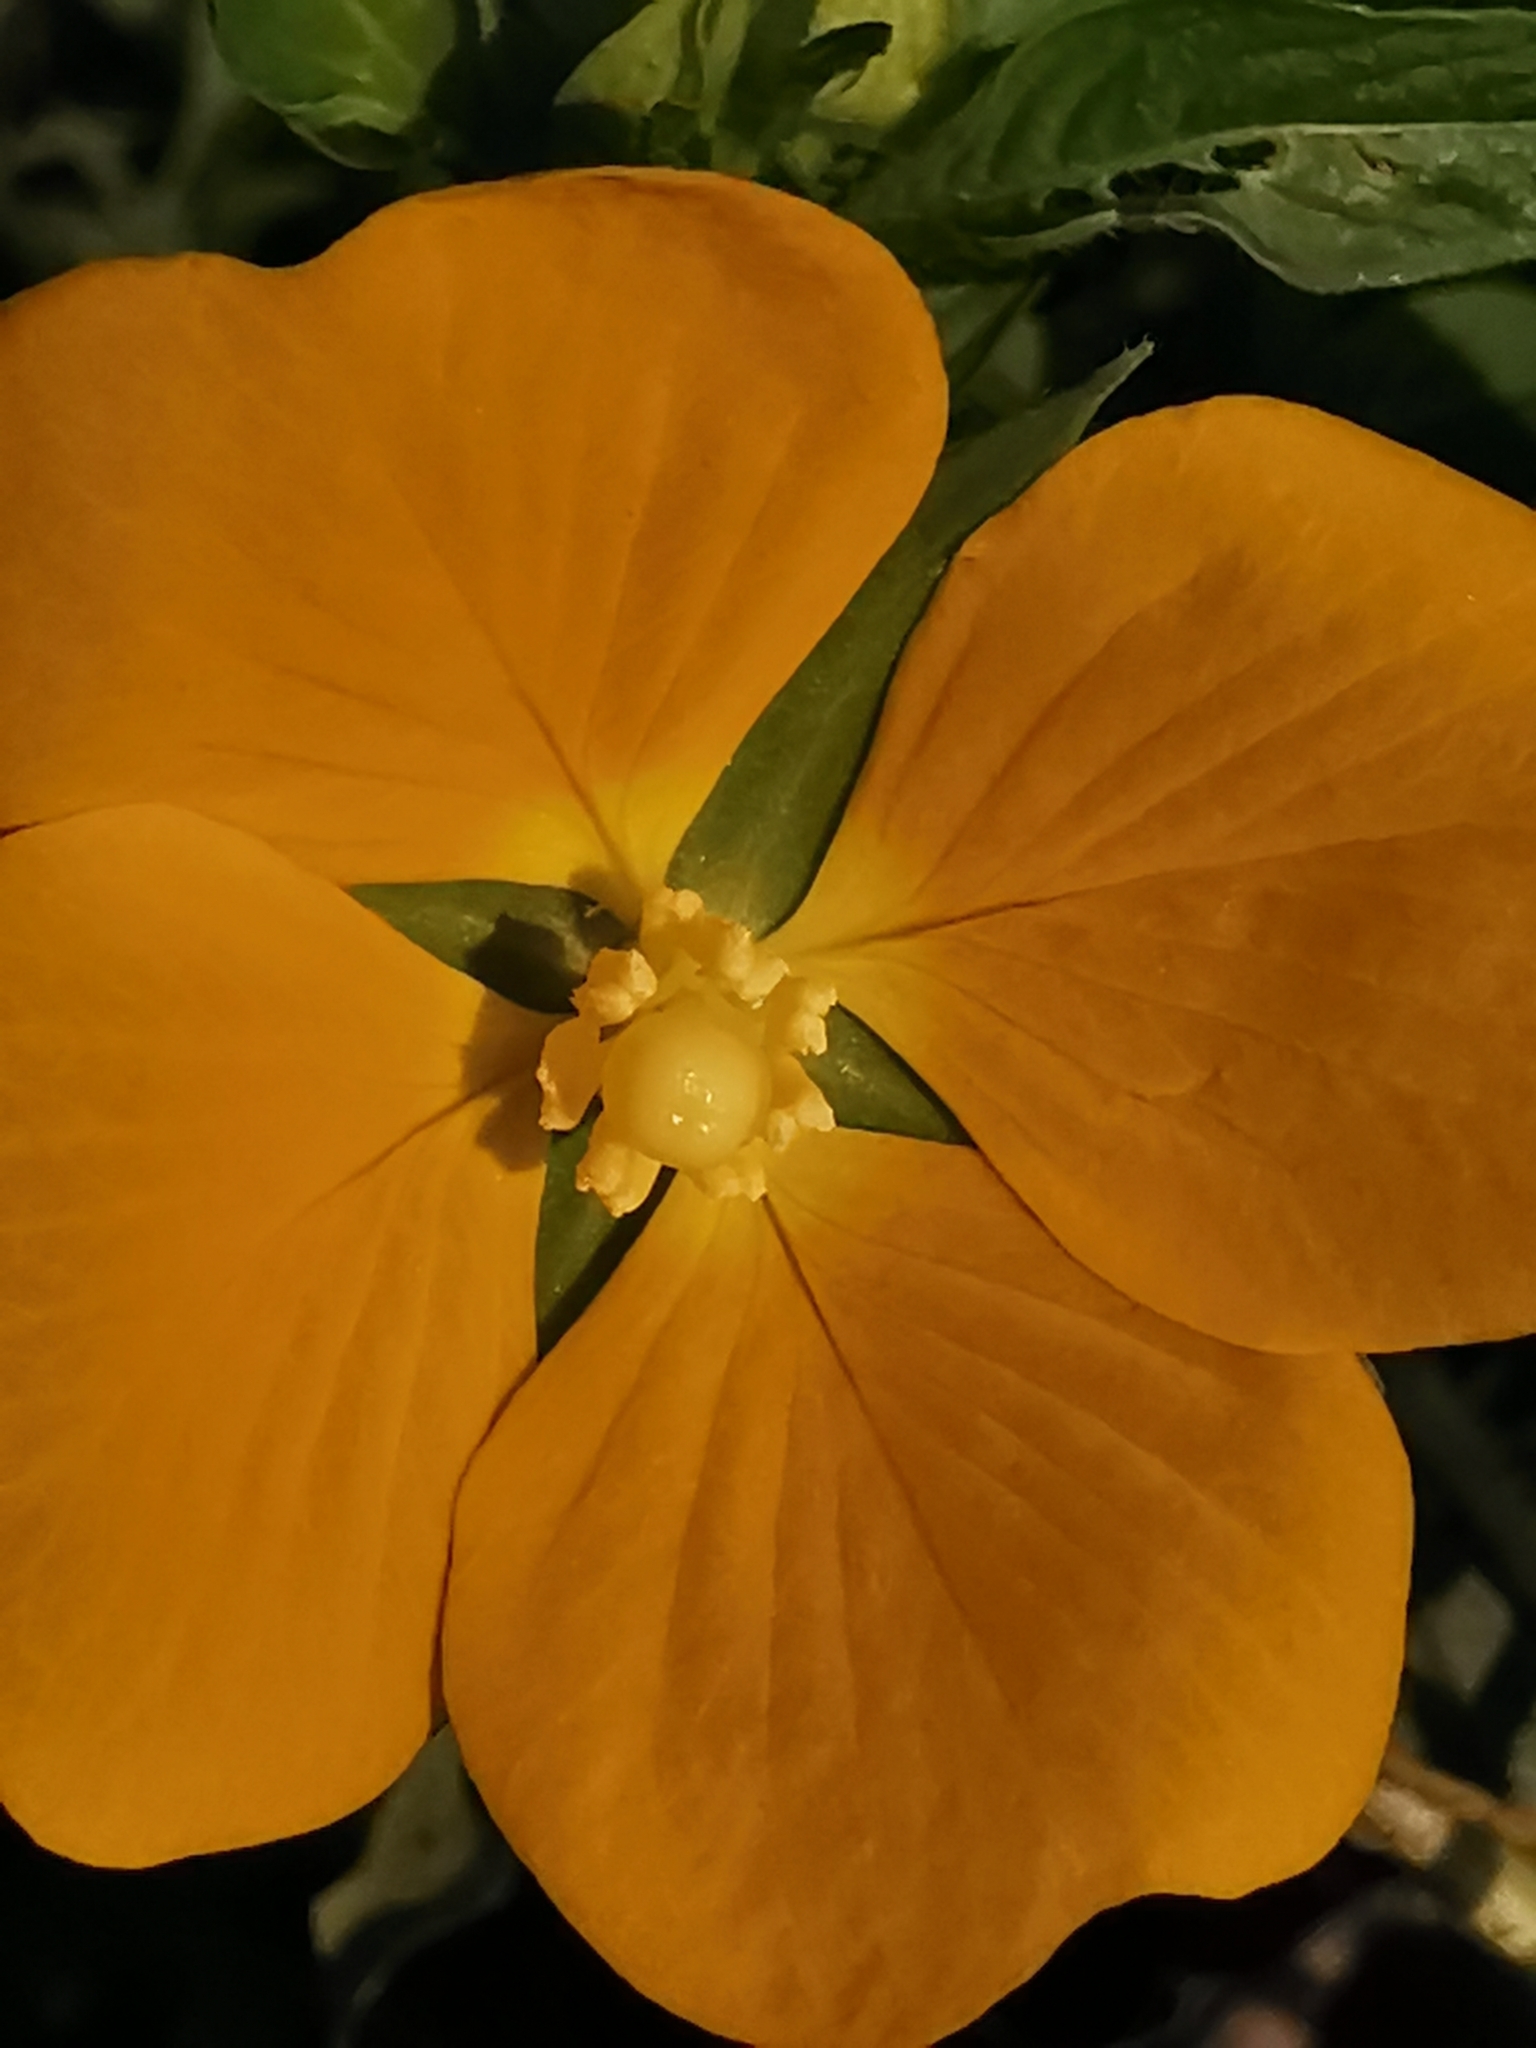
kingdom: Plantae
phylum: Tracheophyta
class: Magnoliopsida
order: Myrtales
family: Onagraceae
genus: Ludwigia
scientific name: Ludwigia octovalvis
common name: Water-primrose
